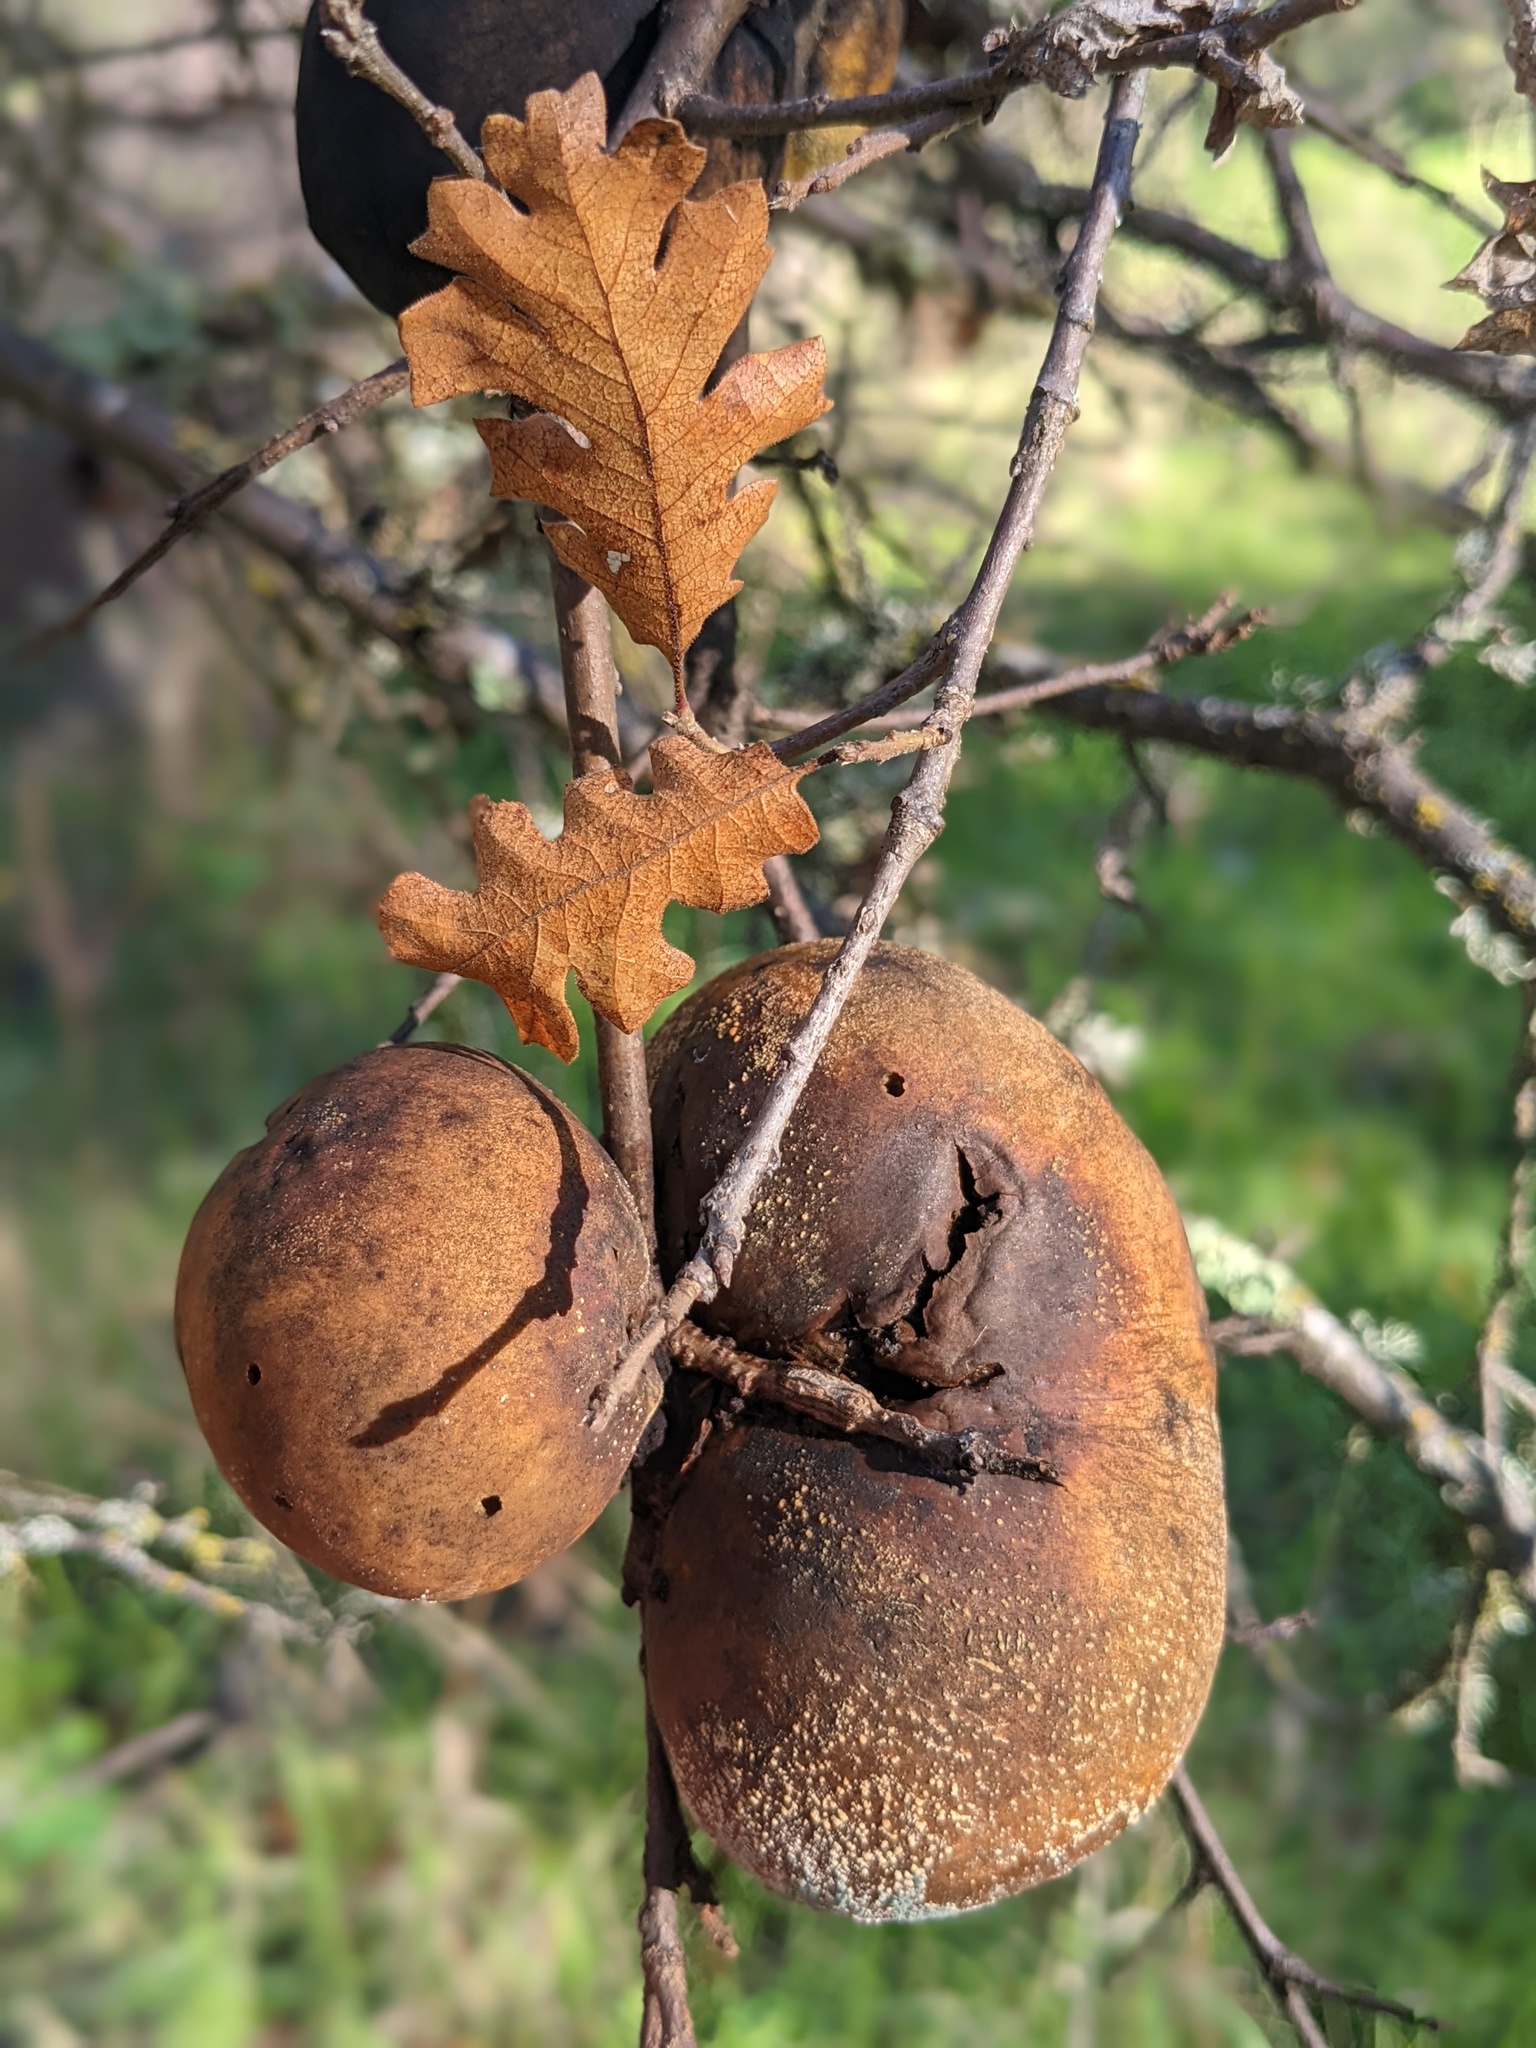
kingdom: Animalia
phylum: Arthropoda
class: Insecta
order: Hymenoptera
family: Cynipidae
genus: Andricus
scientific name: Andricus quercuscalifornicus
